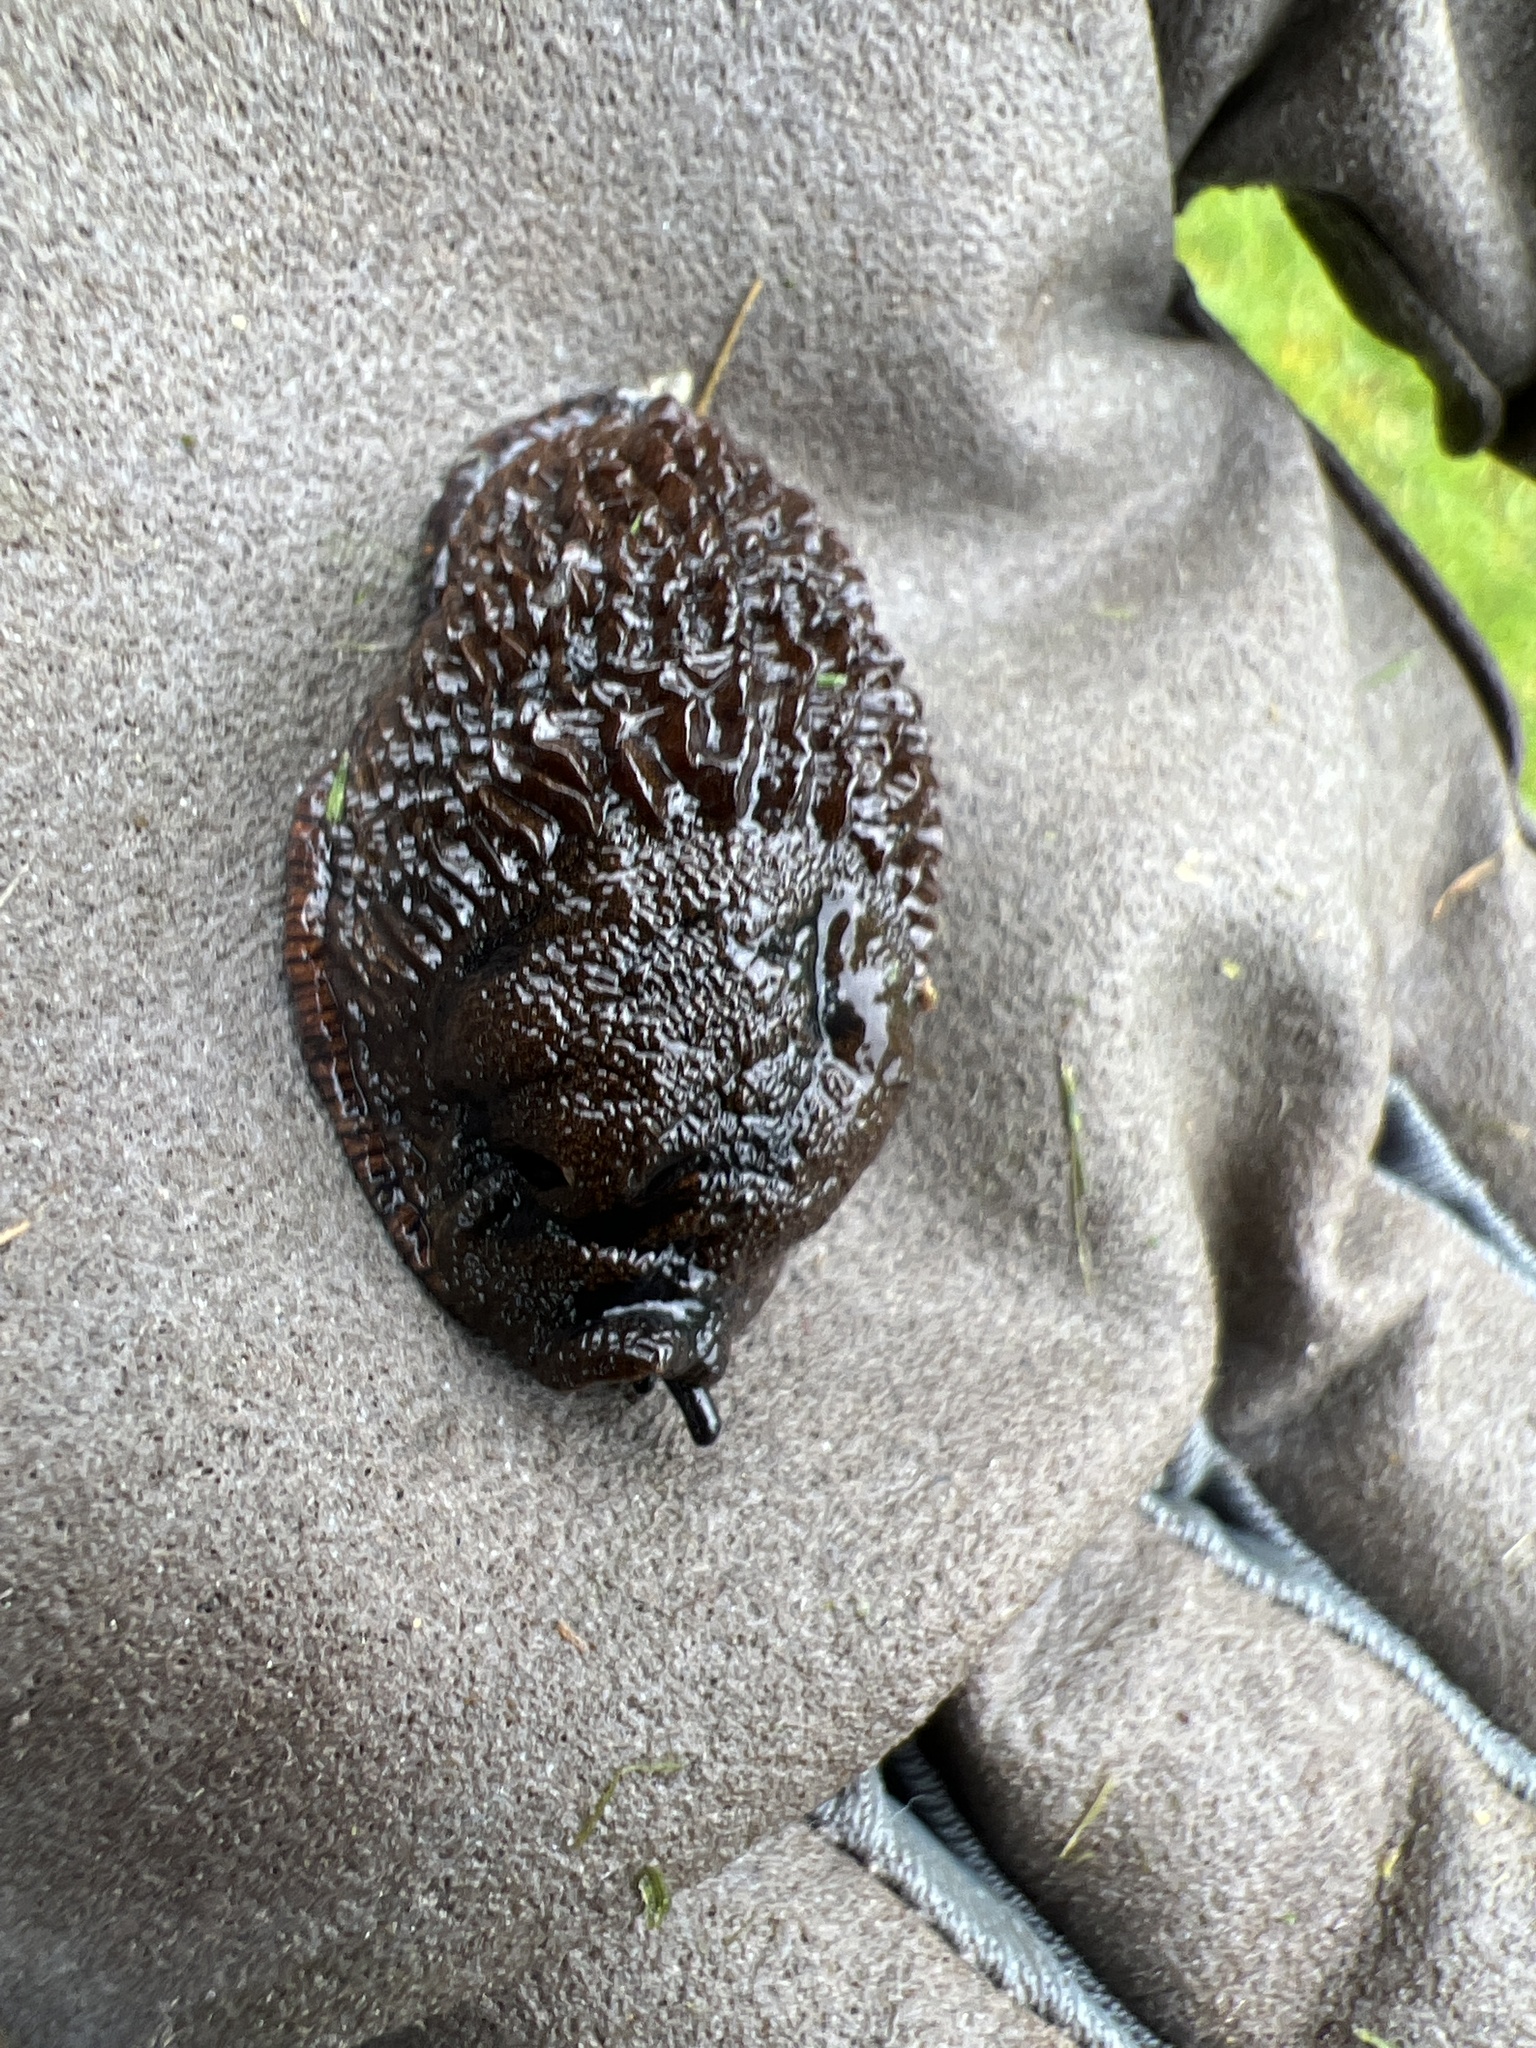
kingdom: Animalia
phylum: Mollusca
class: Gastropoda
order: Stylommatophora
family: Arionidae
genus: Arion
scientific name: Arion
